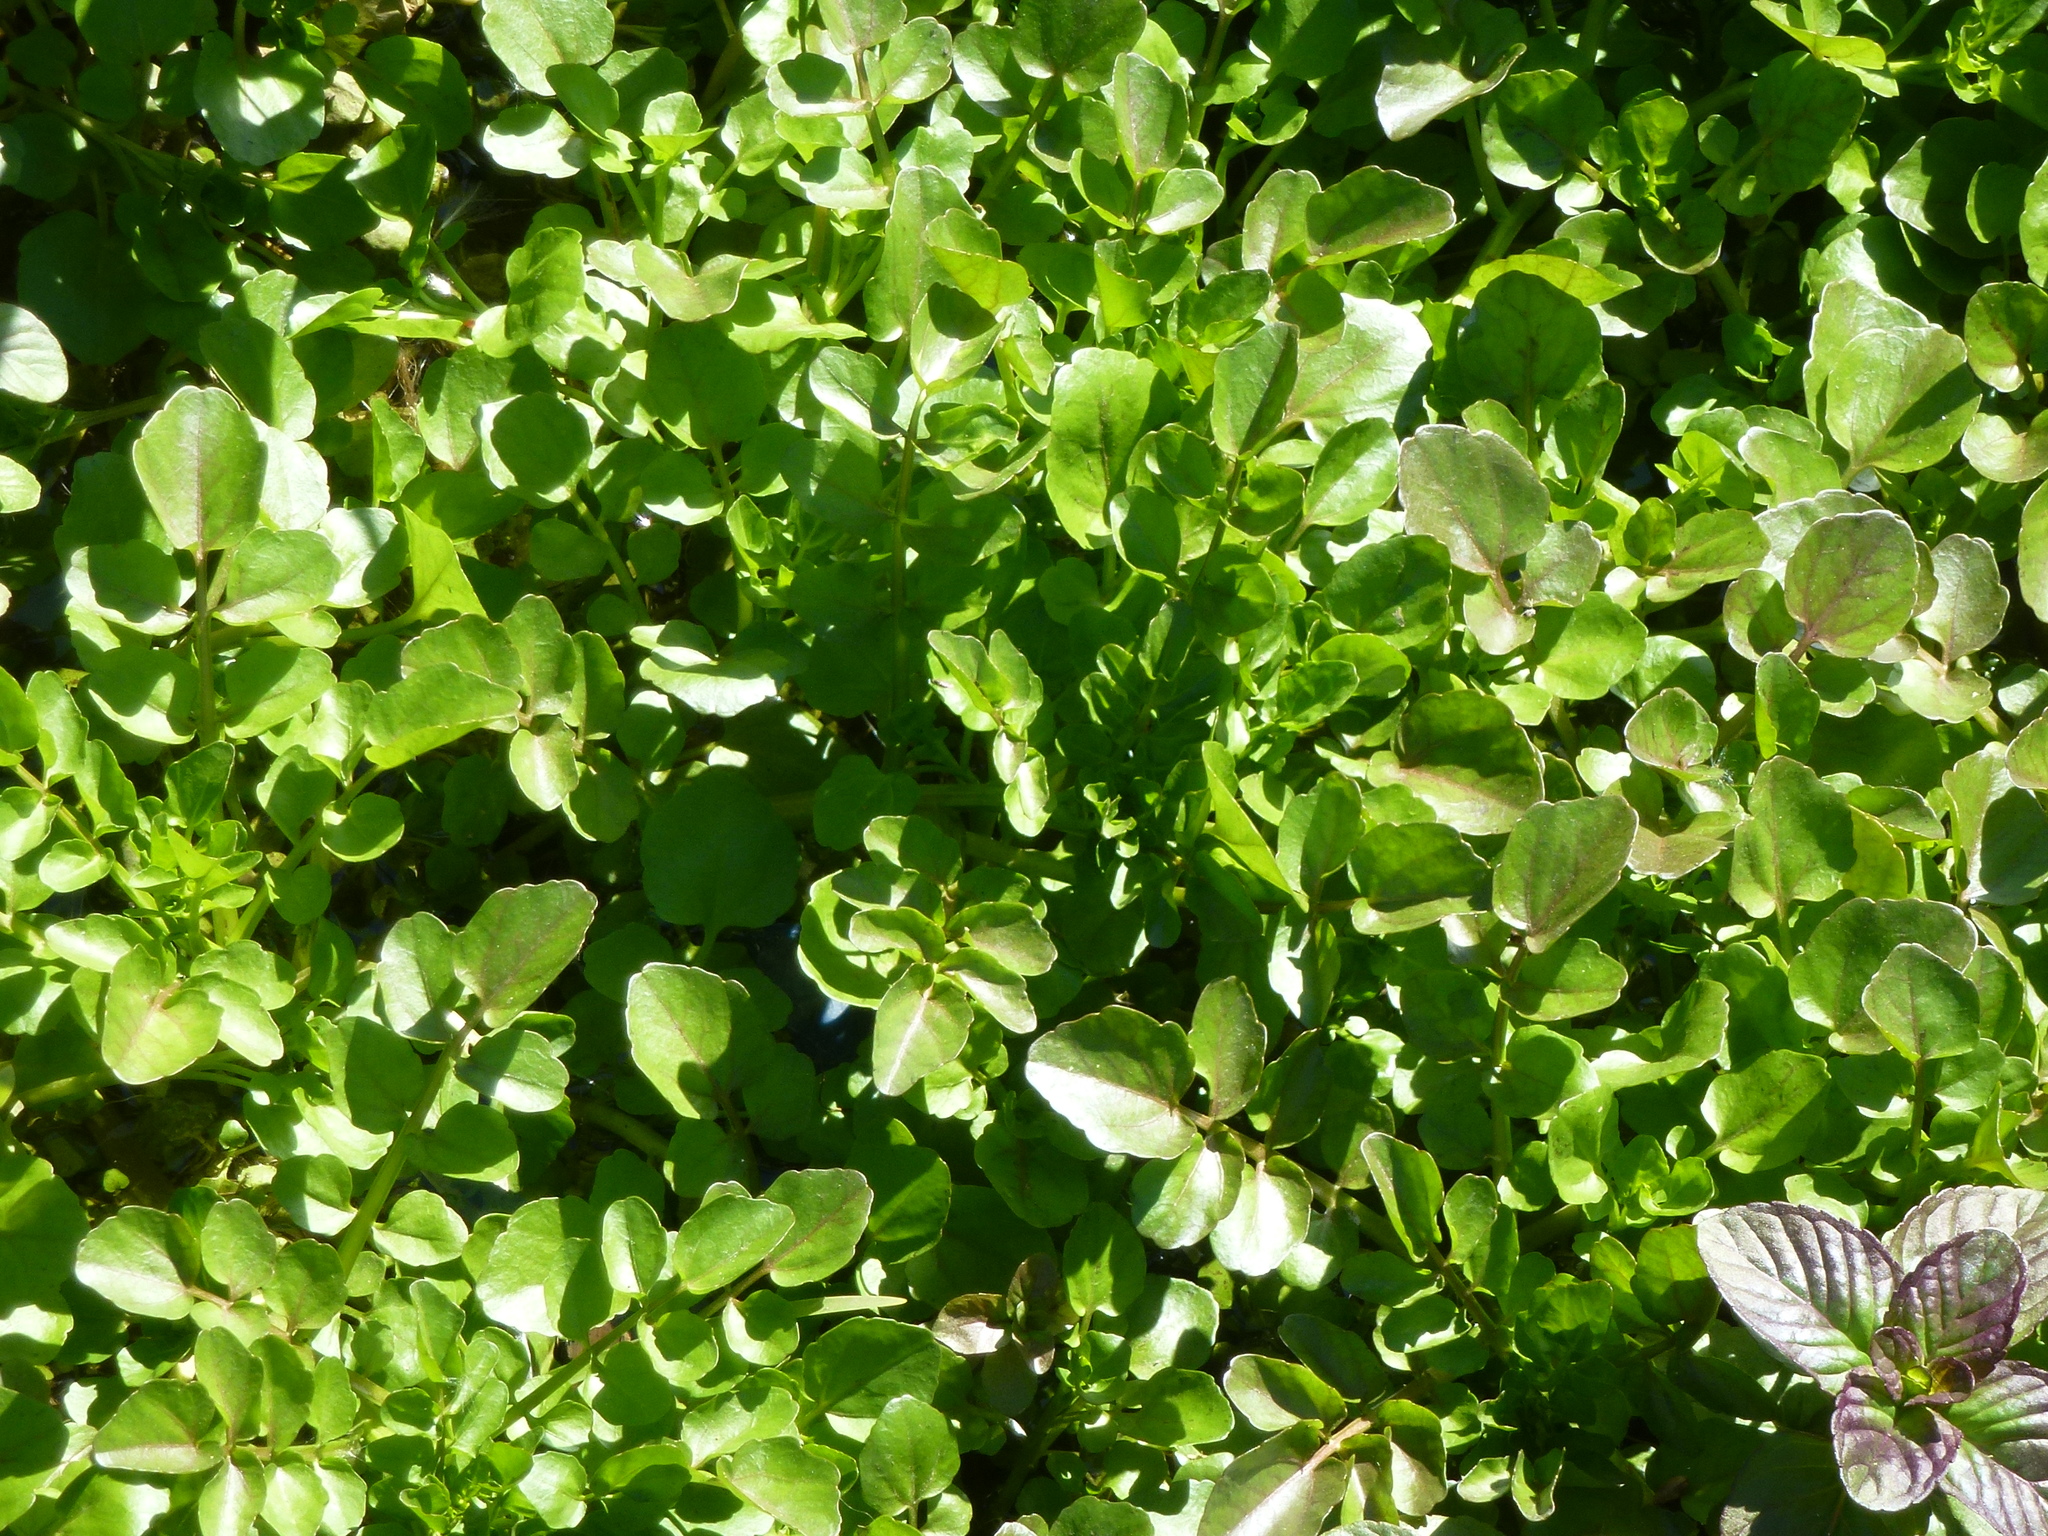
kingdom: Plantae
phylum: Tracheophyta
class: Magnoliopsida
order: Brassicales
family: Brassicaceae
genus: Nasturtium
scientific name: Nasturtium officinale
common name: Watercress
